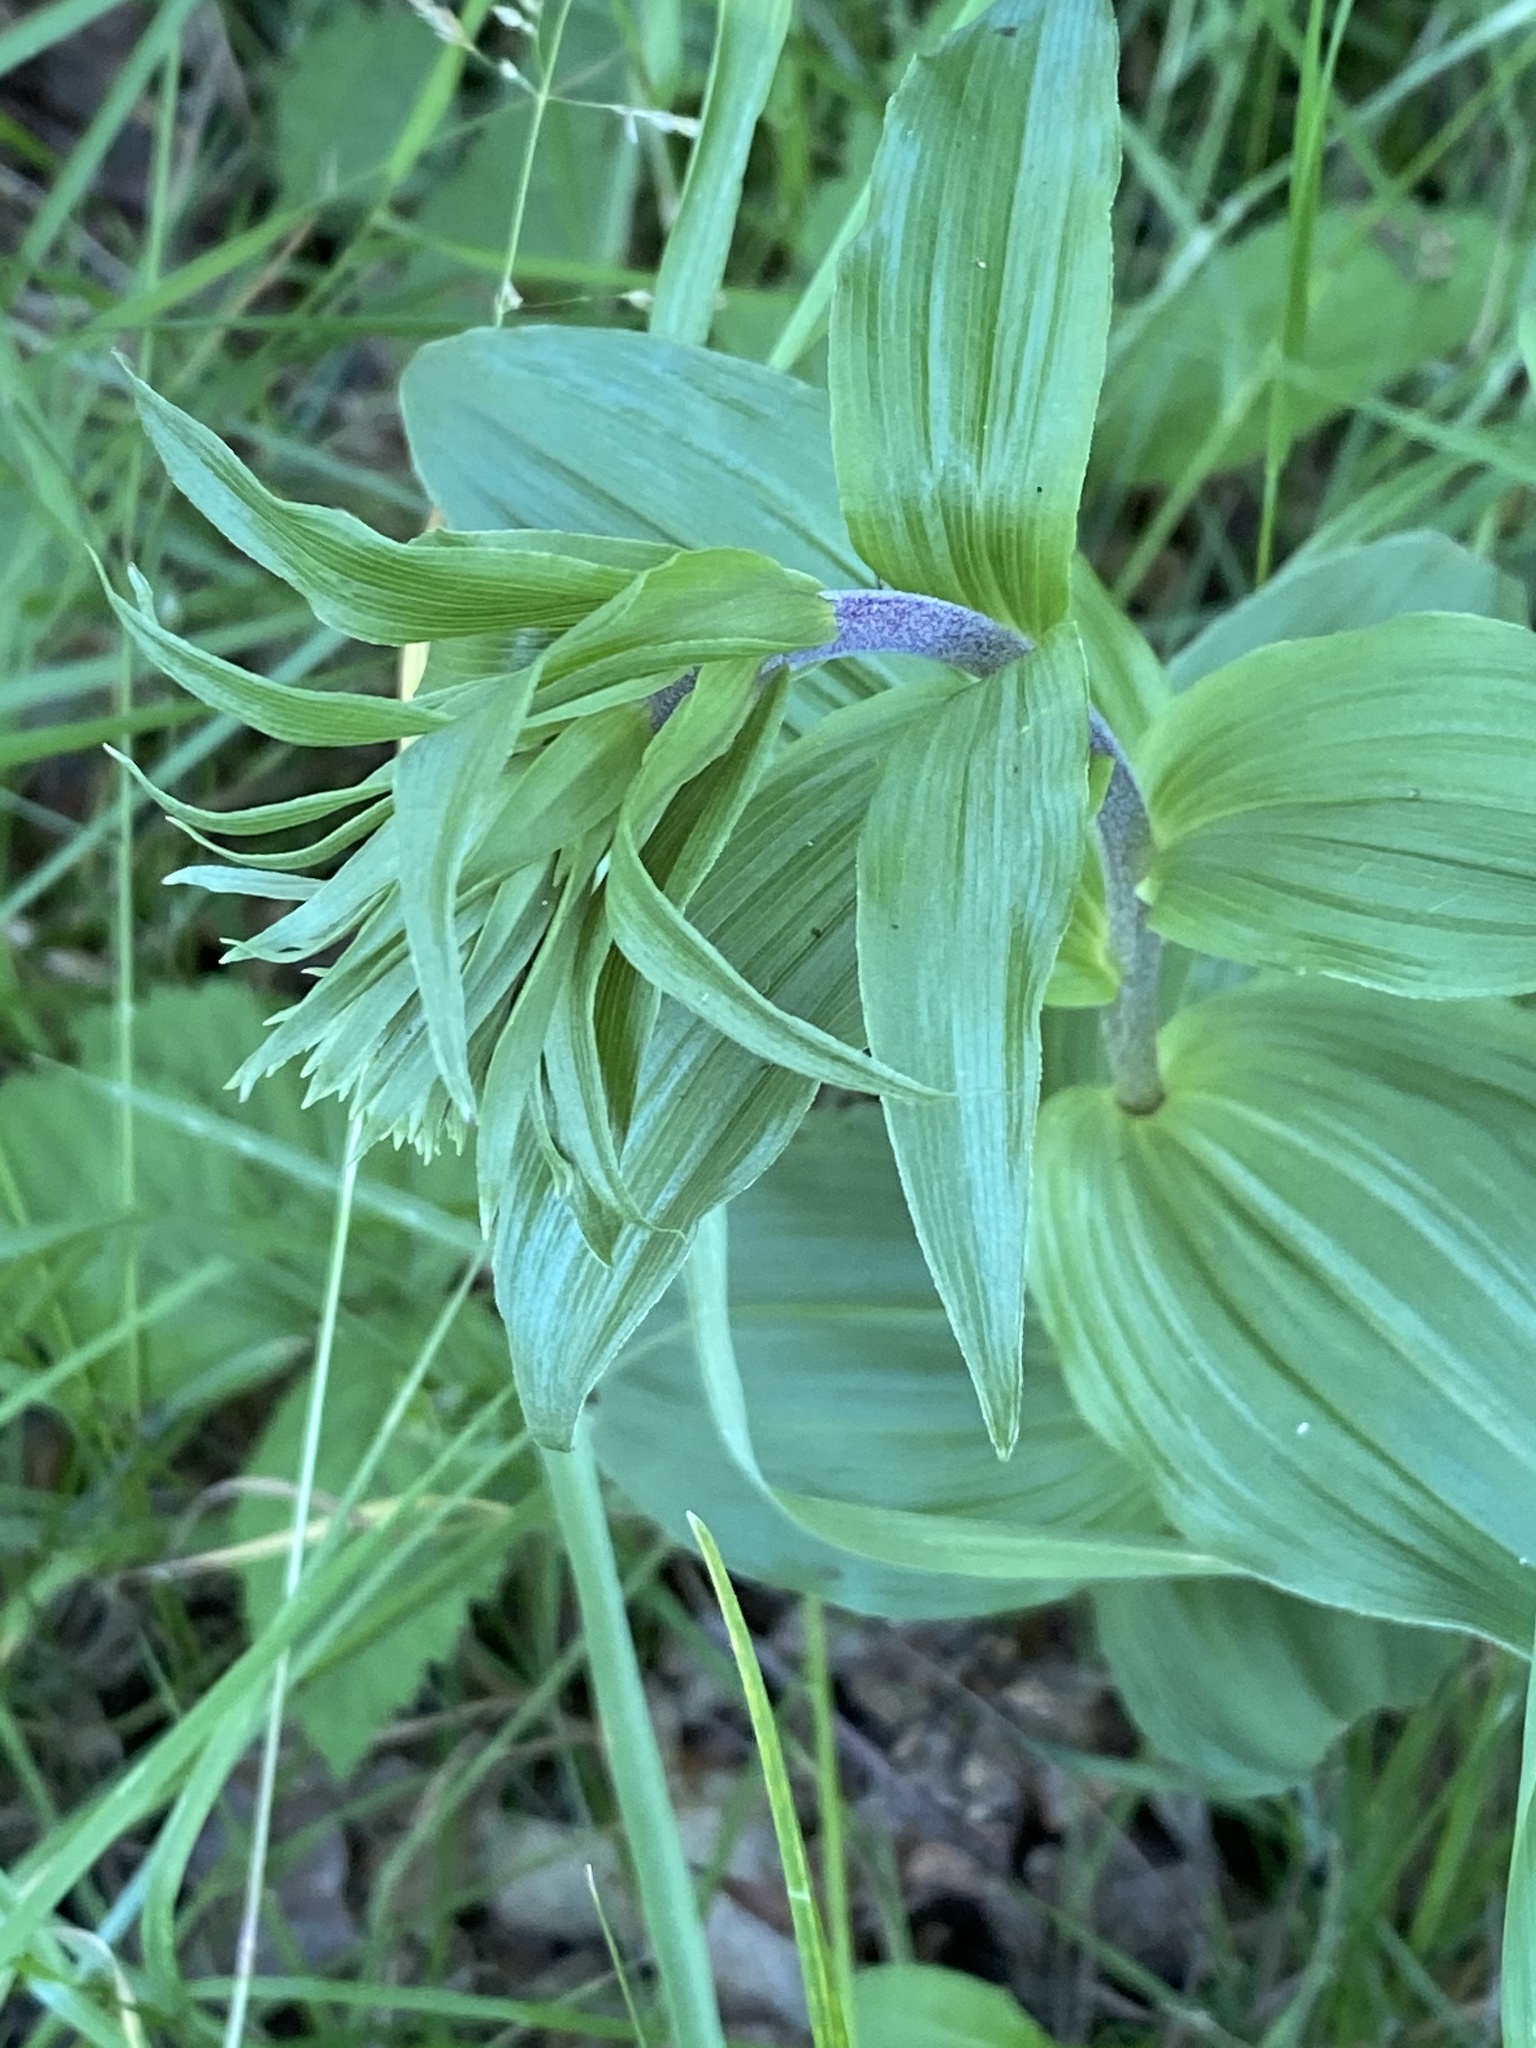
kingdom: Plantae
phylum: Tracheophyta
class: Liliopsida
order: Asparagales
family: Orchidaceae
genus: Epipactis
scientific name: Epipactis helleborine
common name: Broad-leaved helleborine
